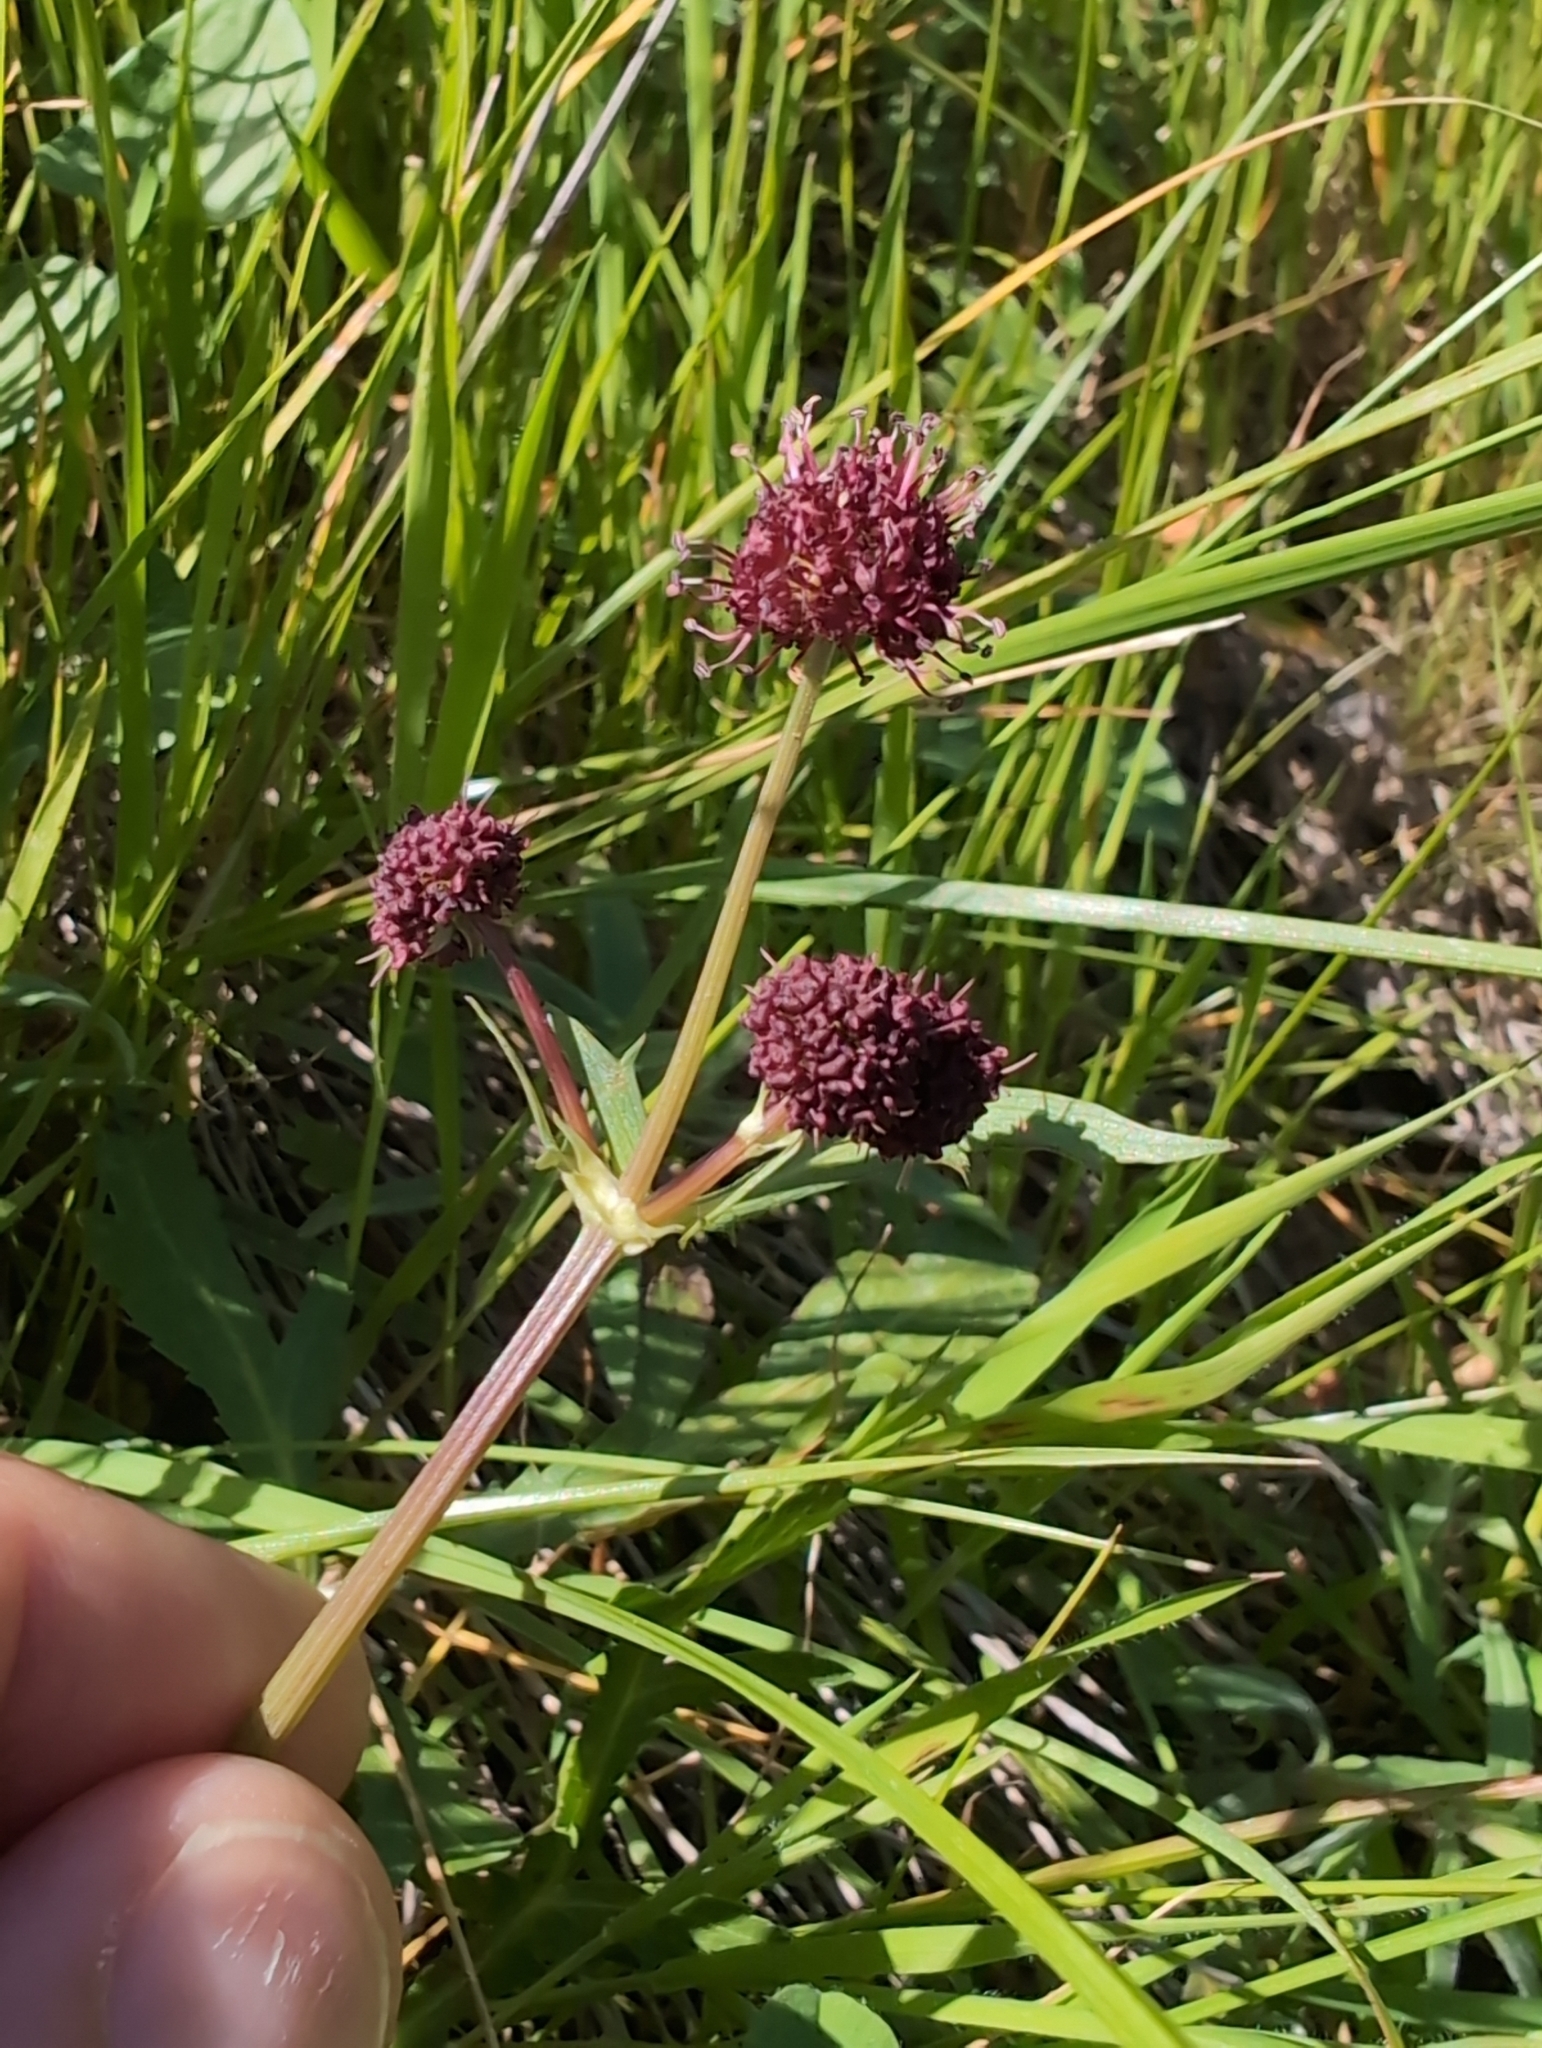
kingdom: Plantae
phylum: Tracheophyta
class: Magnoliopsida
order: Apiales
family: Apiaceae
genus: Sanicula
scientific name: Sanicula bipinnatifida
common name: Shoe-buttons
